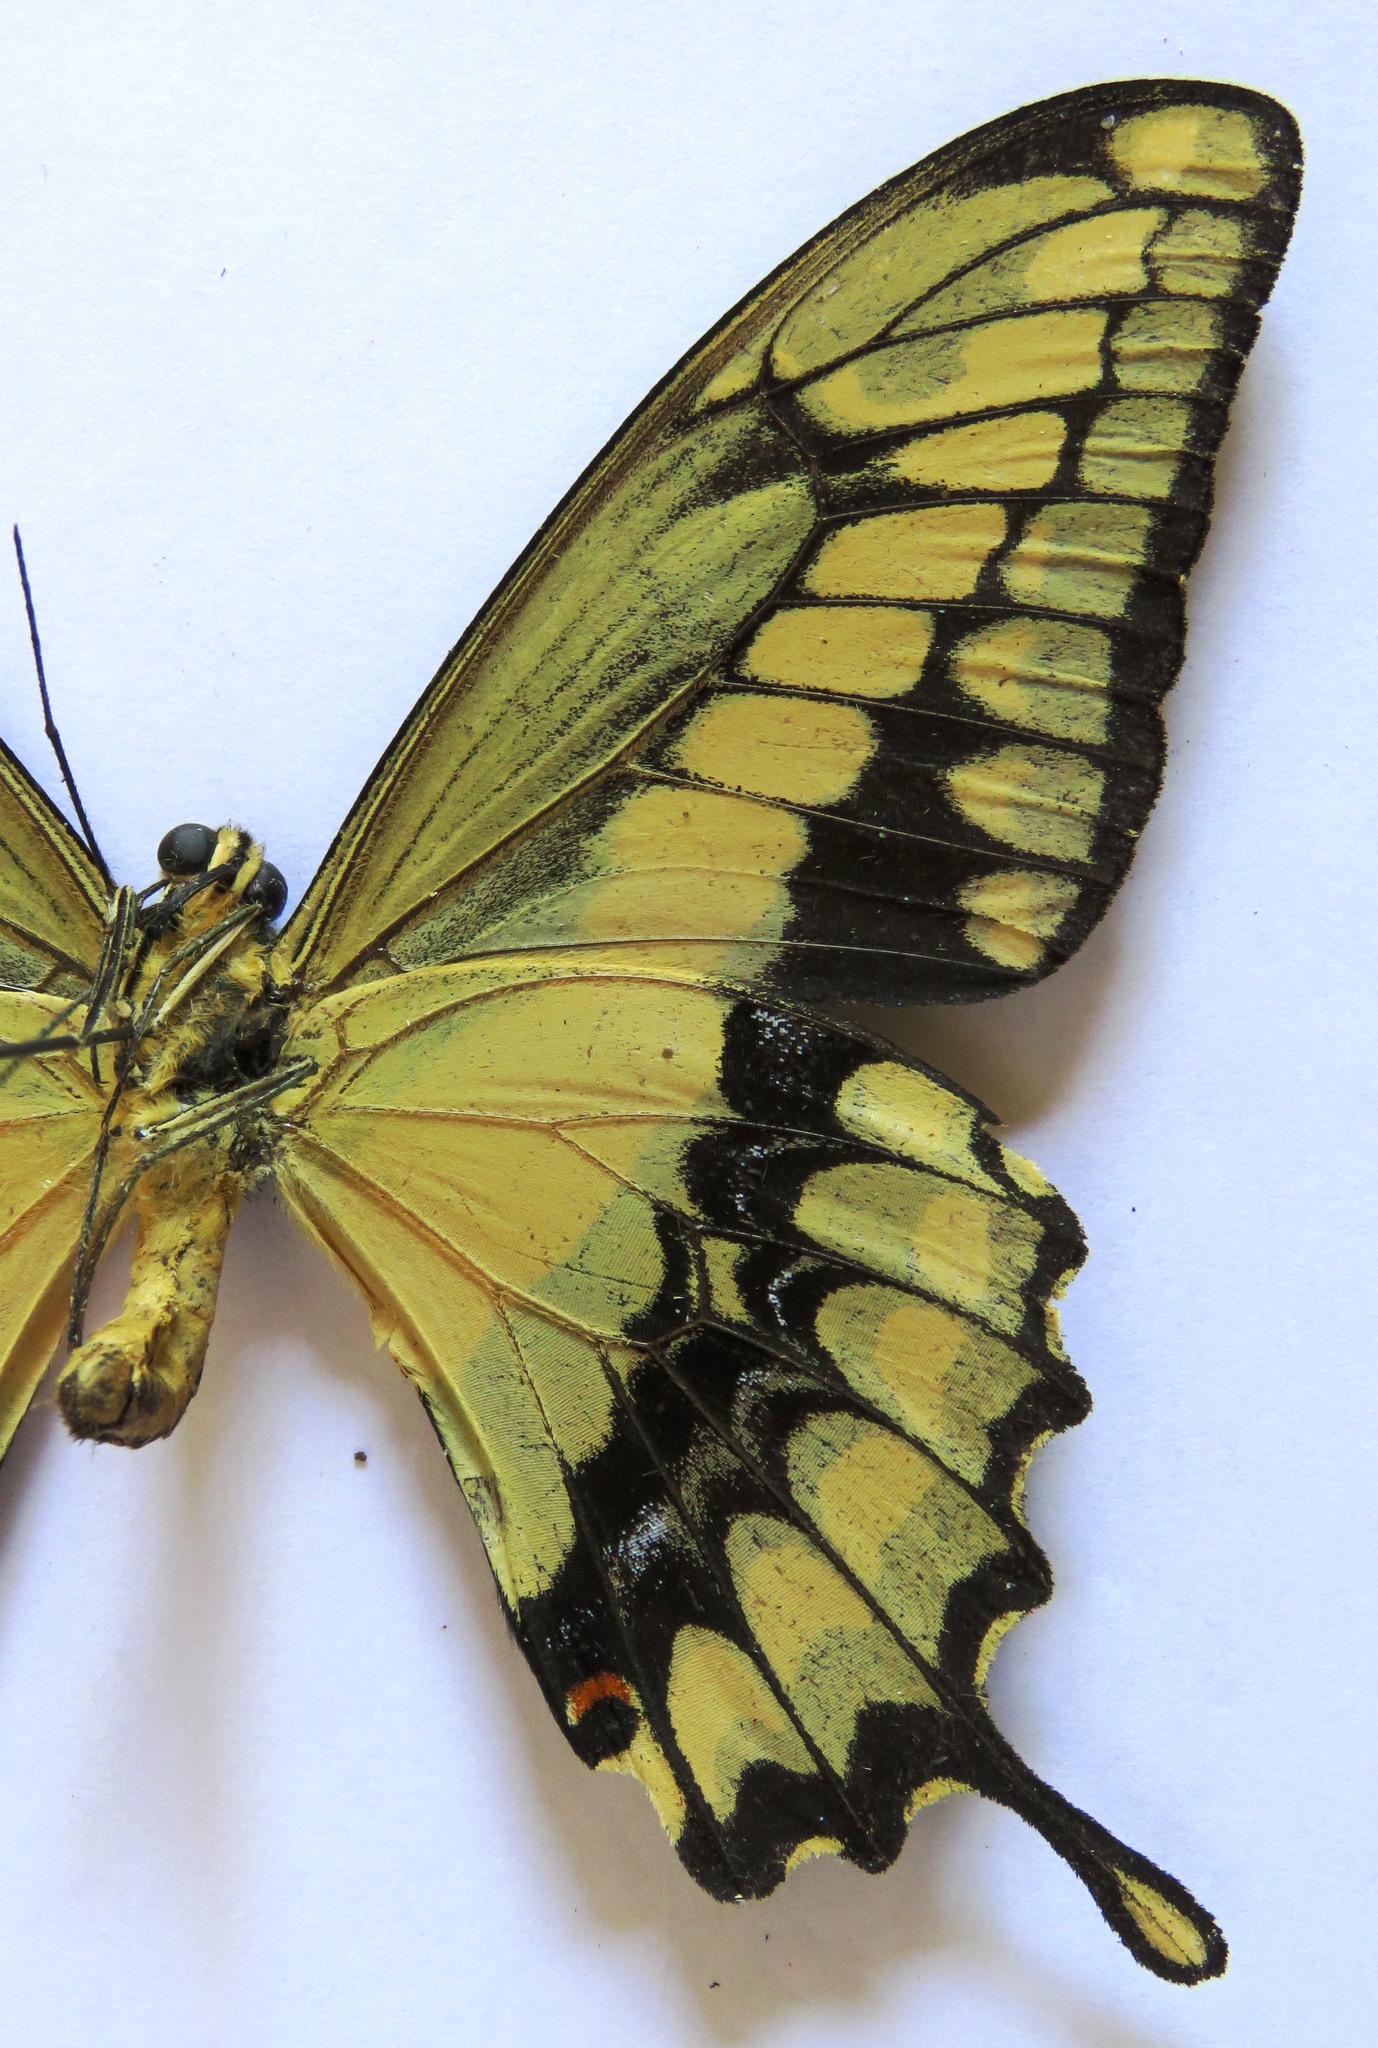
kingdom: Animalia
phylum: Arthropoda
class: Insecta
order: Lepidoptera
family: Papilionidae
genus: Papilio
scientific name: Papilio thoas
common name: King swallowtail
